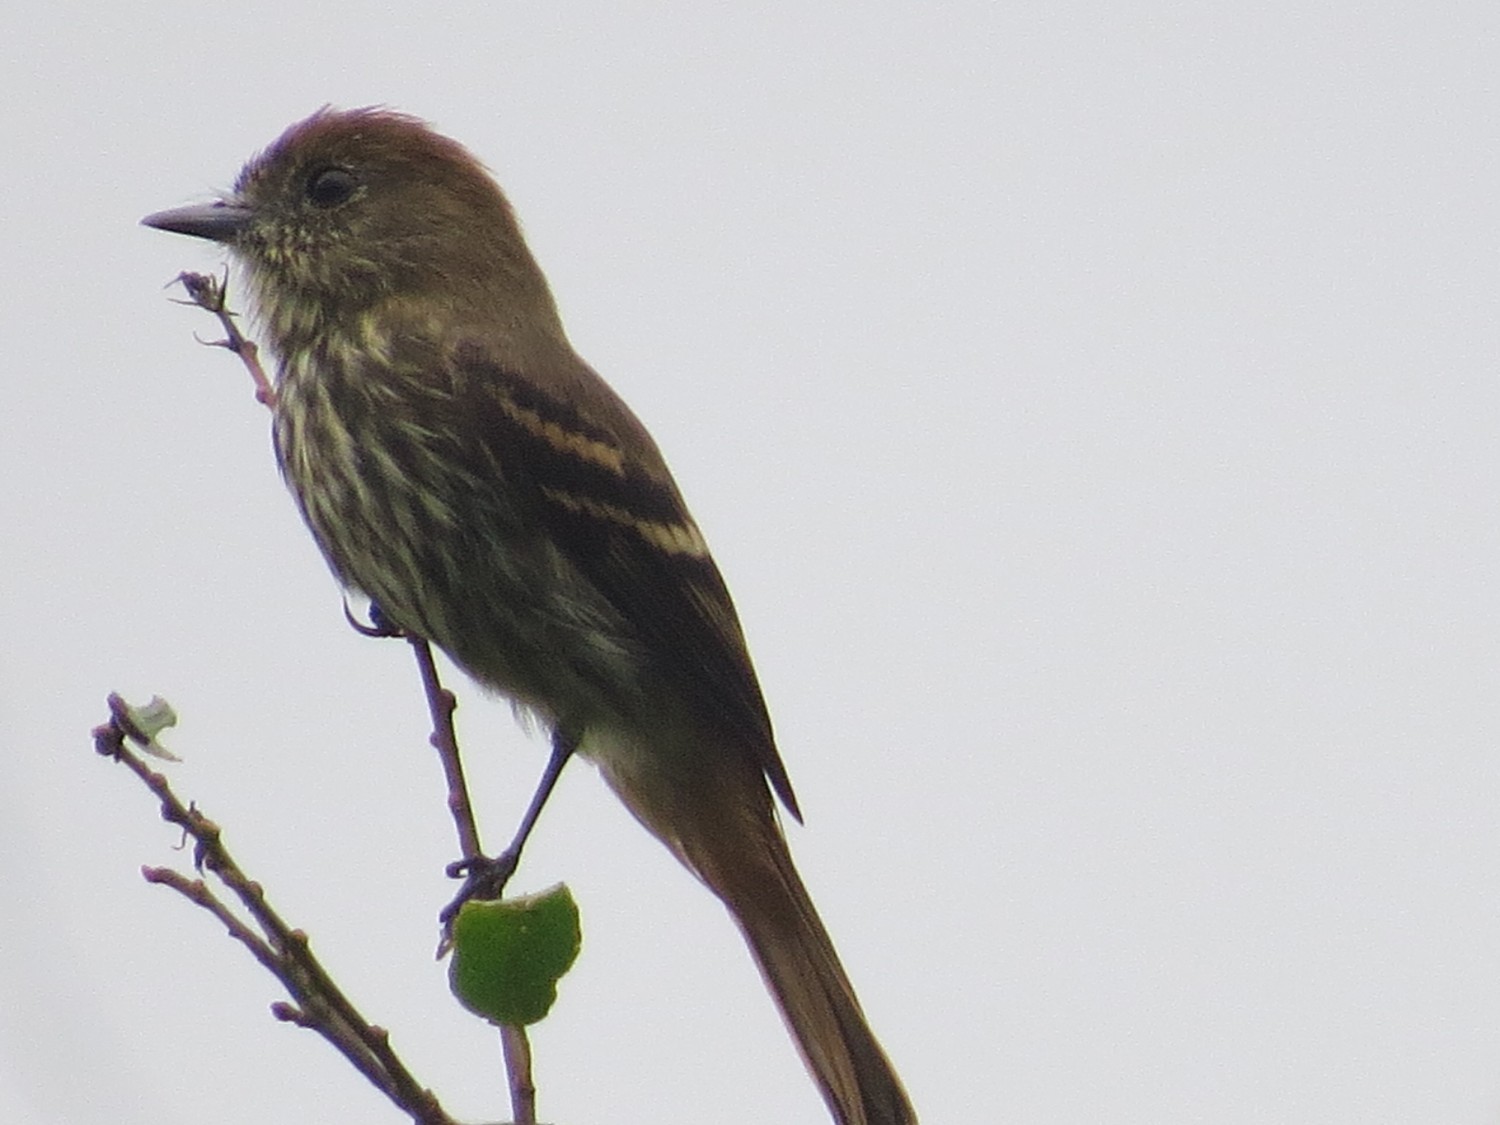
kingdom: Animalia
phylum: Chordata
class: Aves
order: Passeriformes
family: Tyrannidae
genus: Knipolegus
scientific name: Knipolegus cyanirostris
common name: Blue-billed black tyrant
